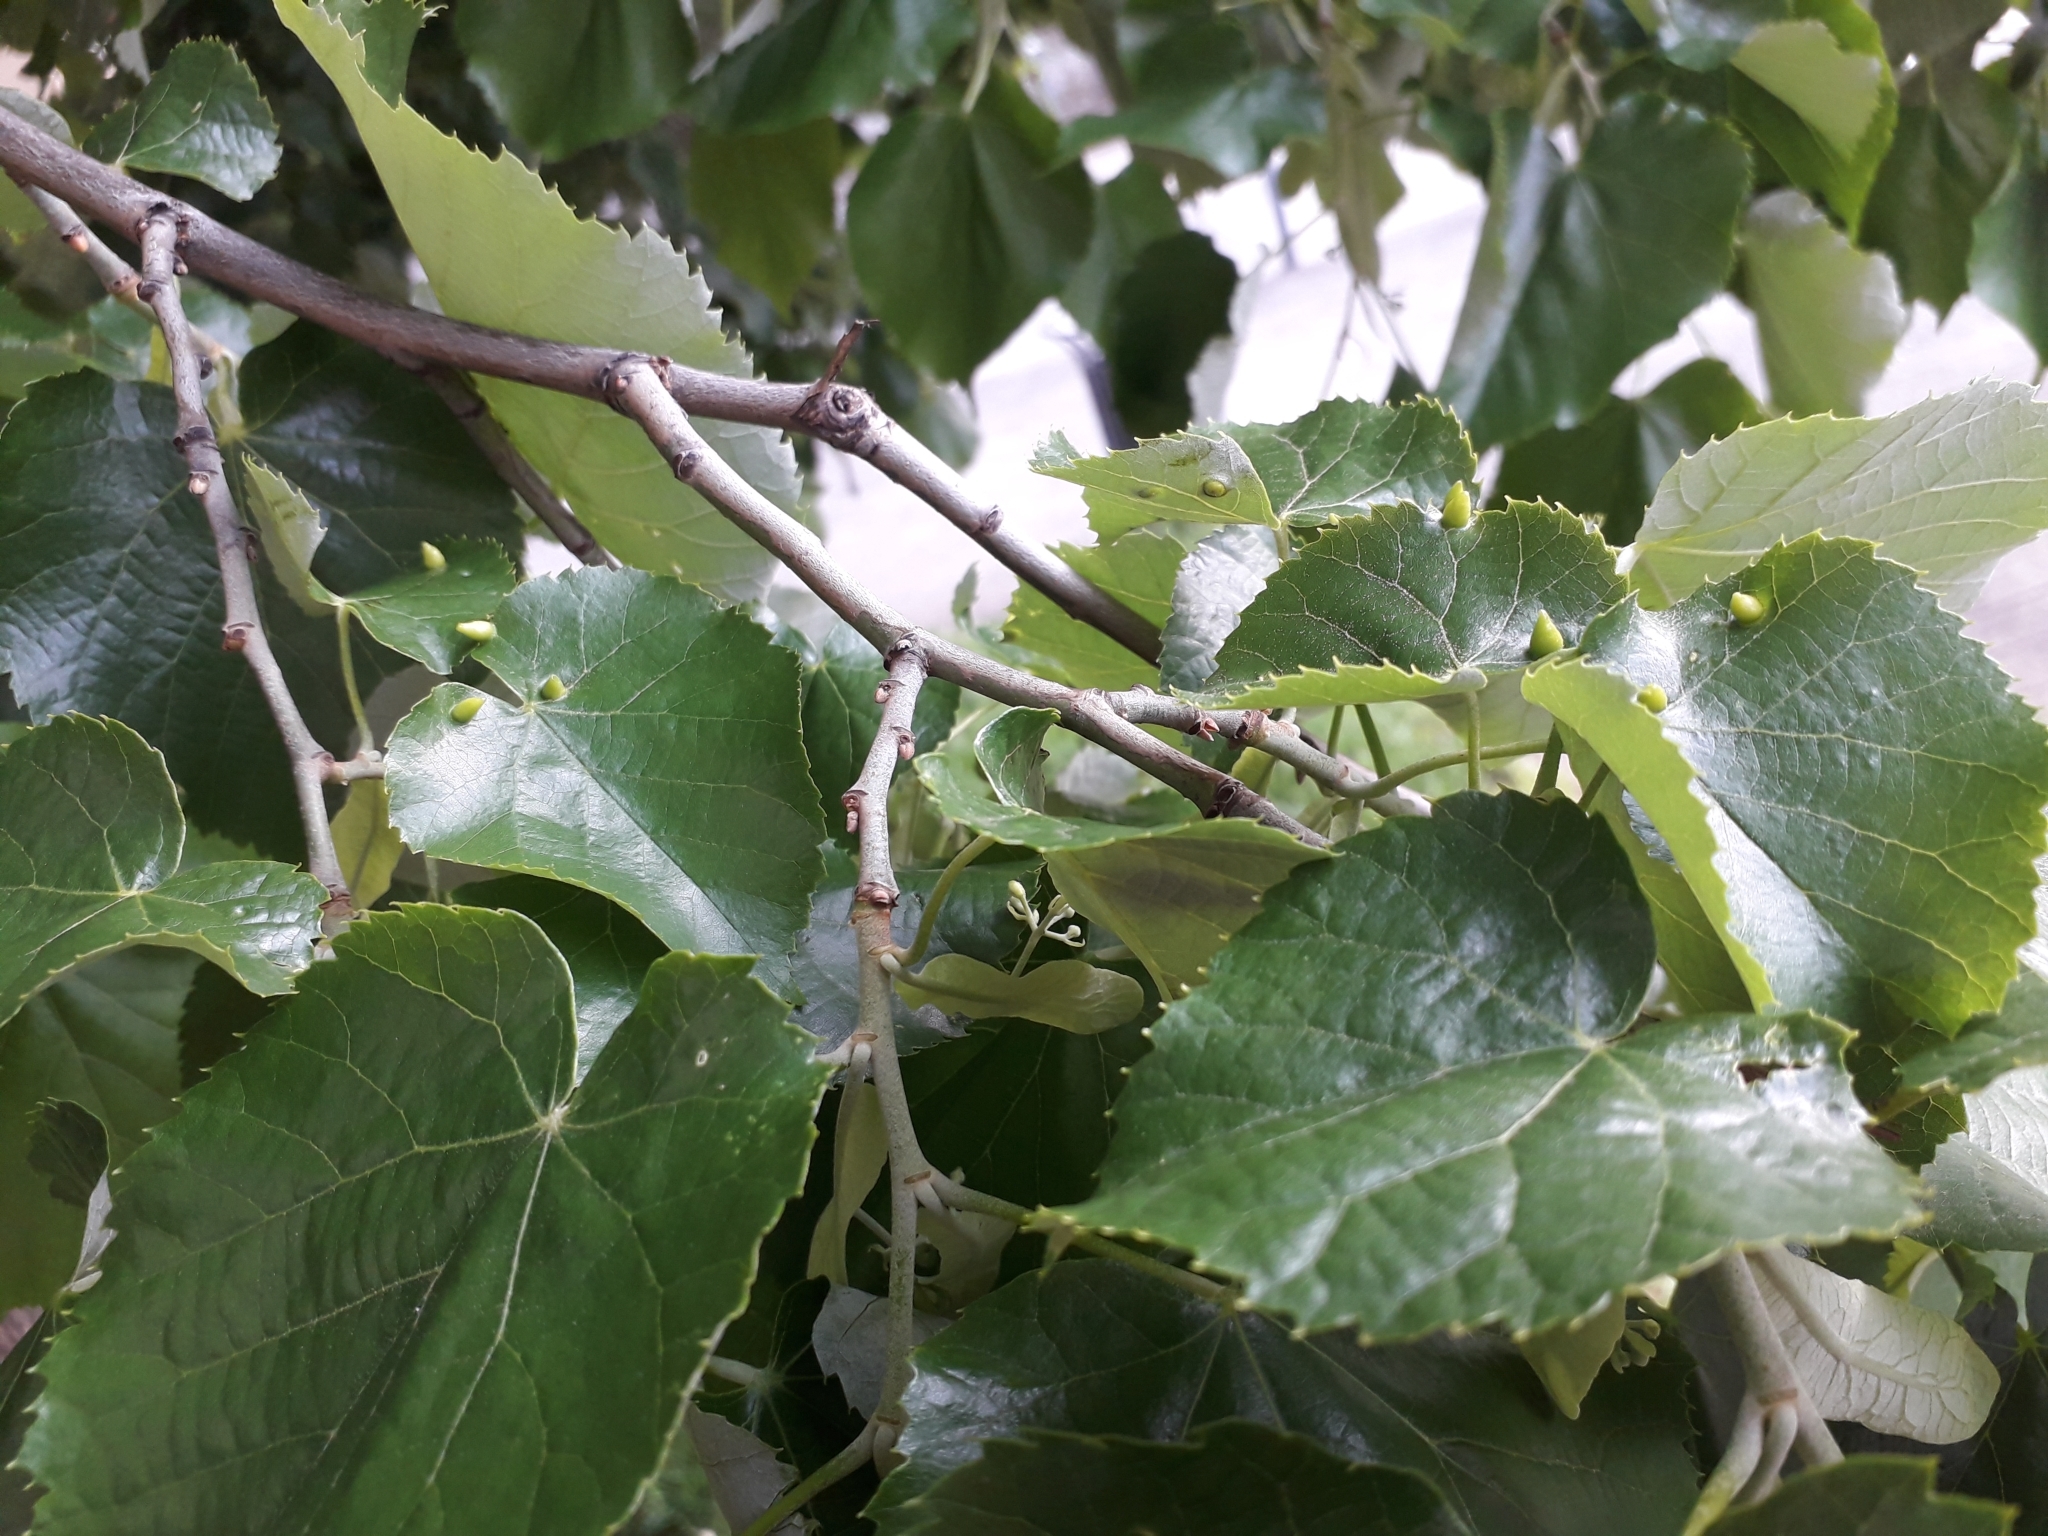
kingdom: Animalia
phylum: Arthropoda
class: Arachnida
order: Trombidiformes
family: Eriophyidae
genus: Eriophyes
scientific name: Eriophyes tiliae
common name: Red nail gall mite
